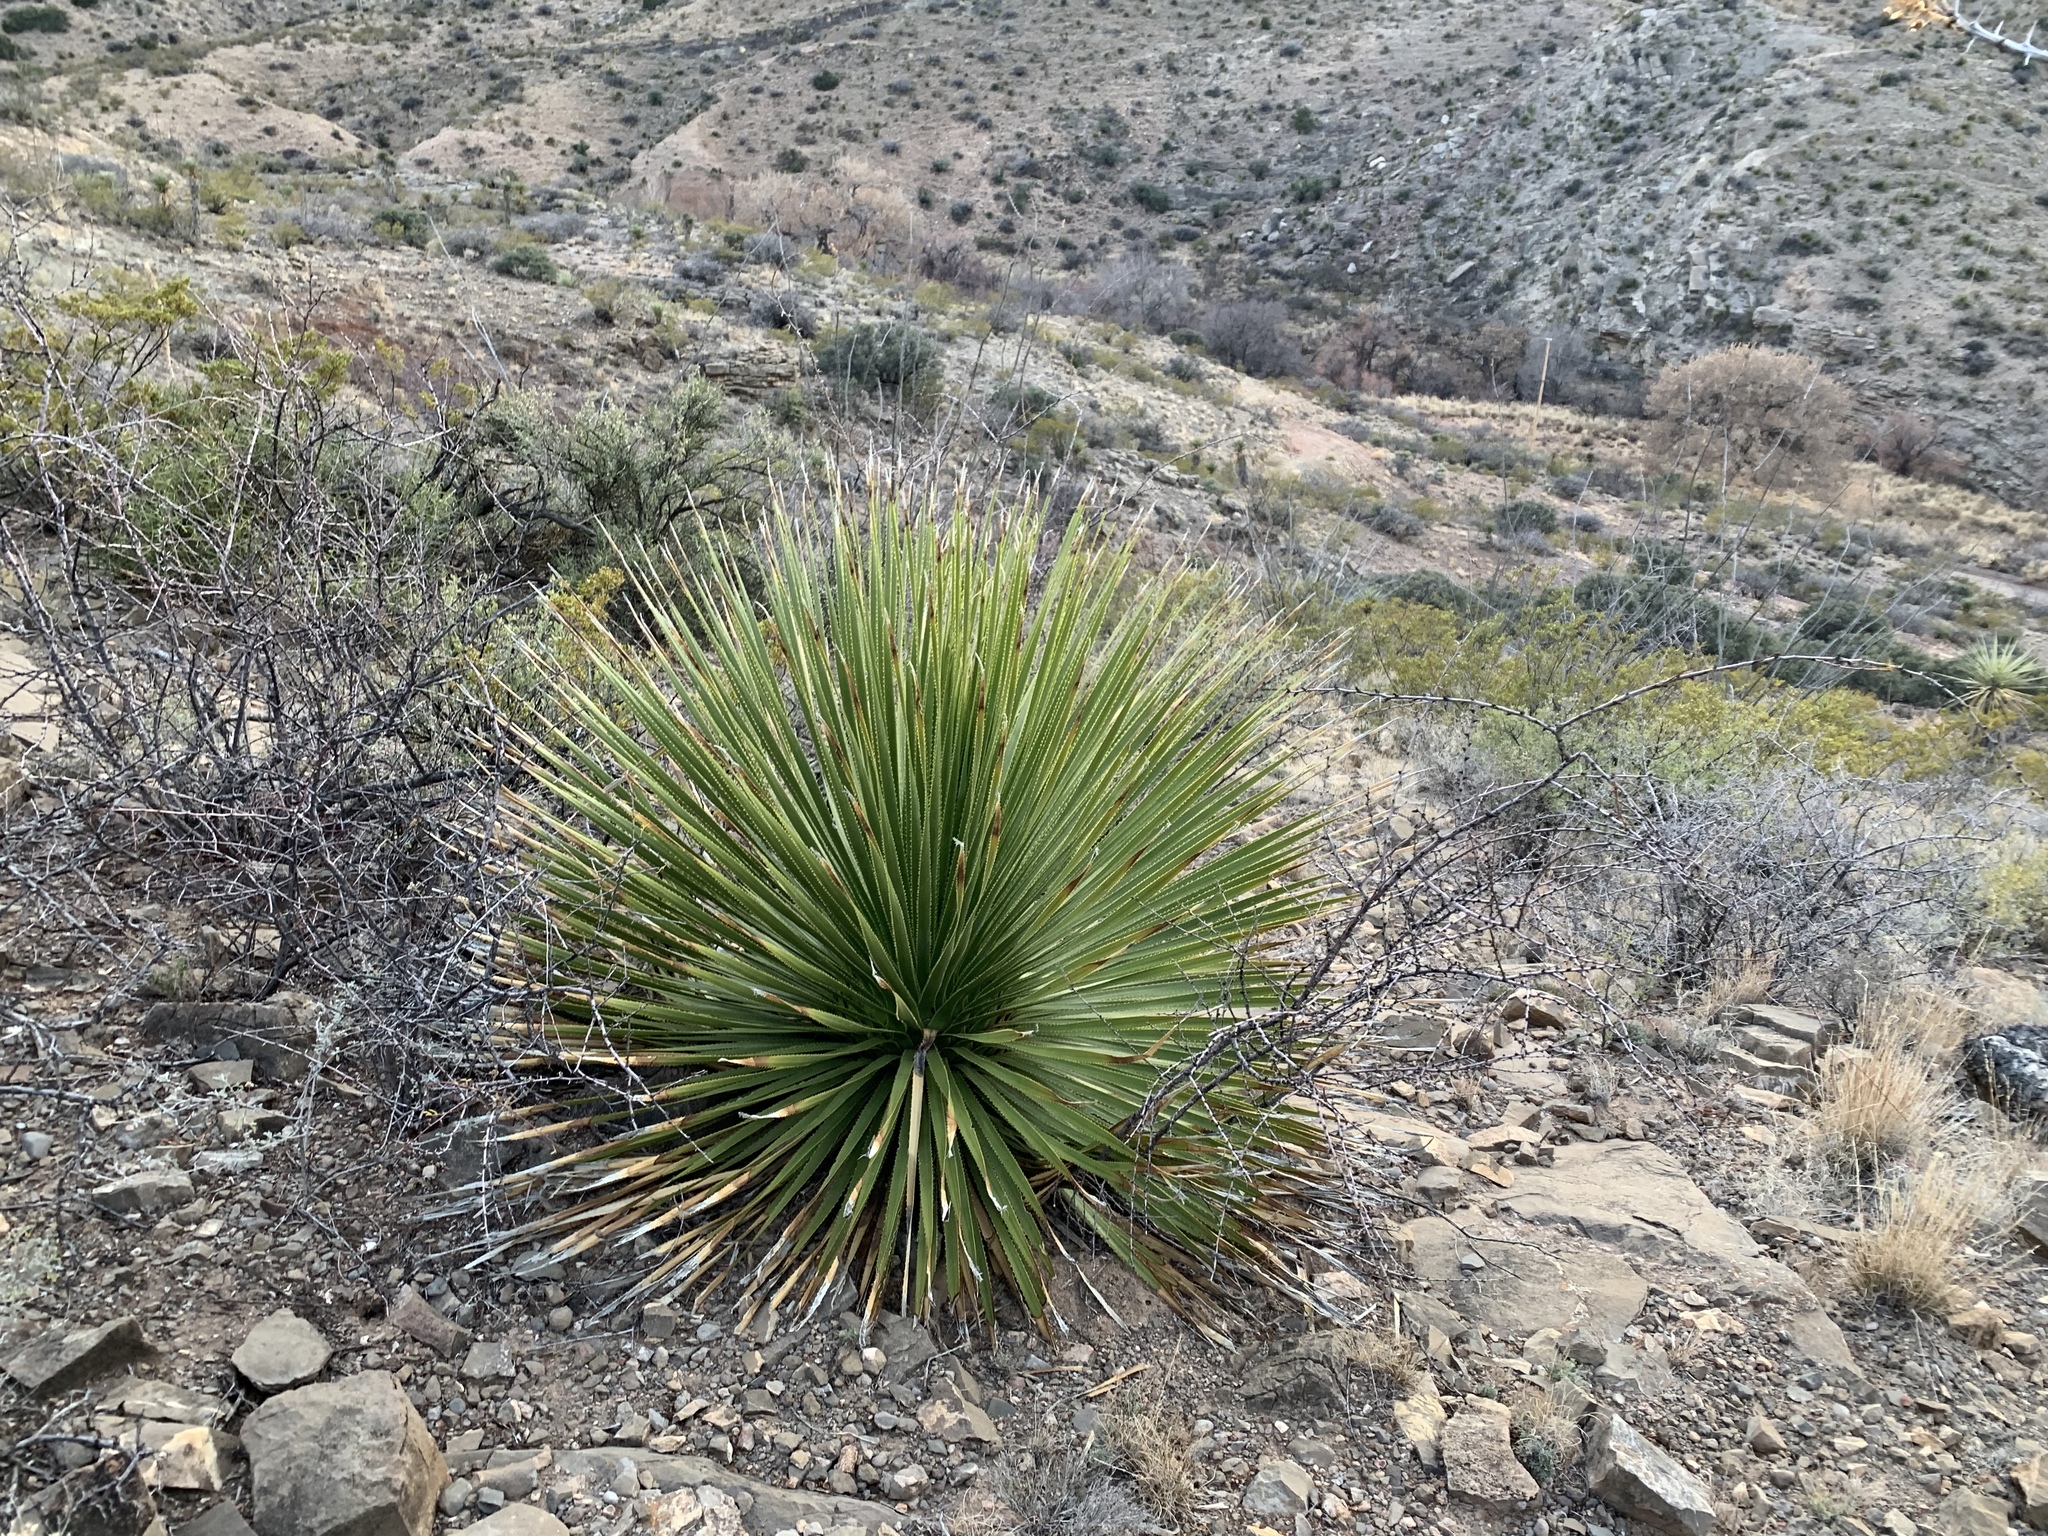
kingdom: Plantae
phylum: Tracheophyta
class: Liliopsida
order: Asparagales
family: Asparagaceae
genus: Dasylirion
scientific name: Dasylirion wheeleri
